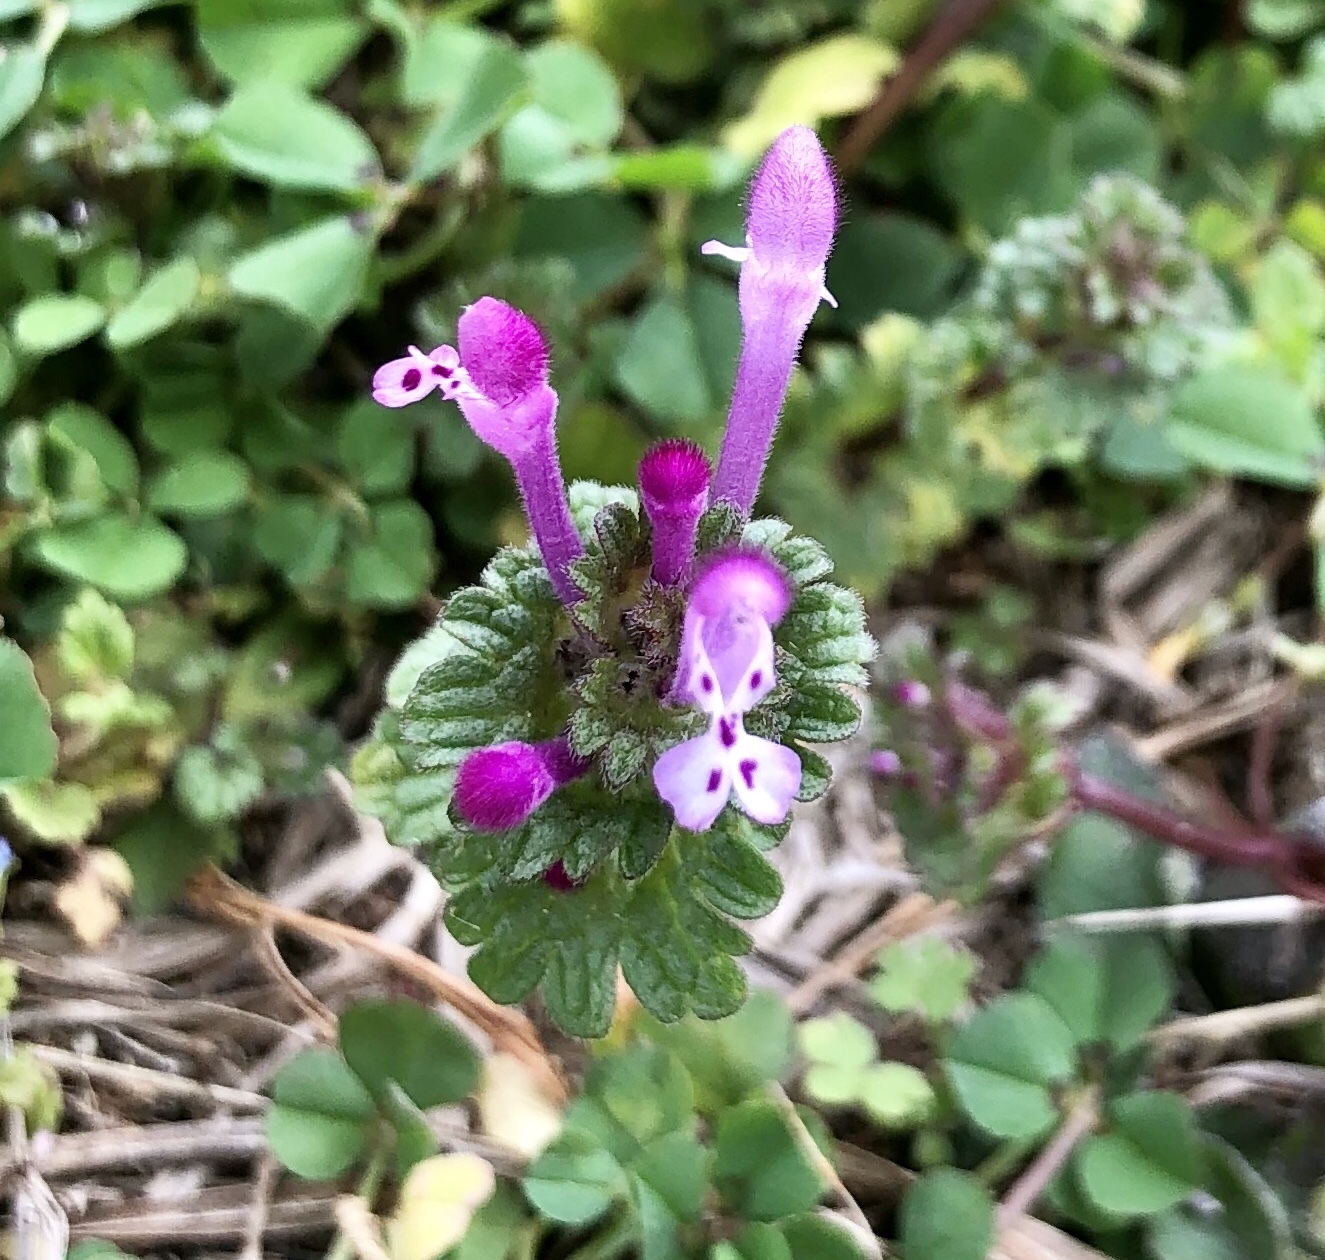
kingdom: Plantae
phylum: Tracheophyta
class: Magnoliopsida
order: Lamiales
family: Lamiaceae
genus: Lamium
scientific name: Lamium amplexicaule
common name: Henbit dead-nettle
